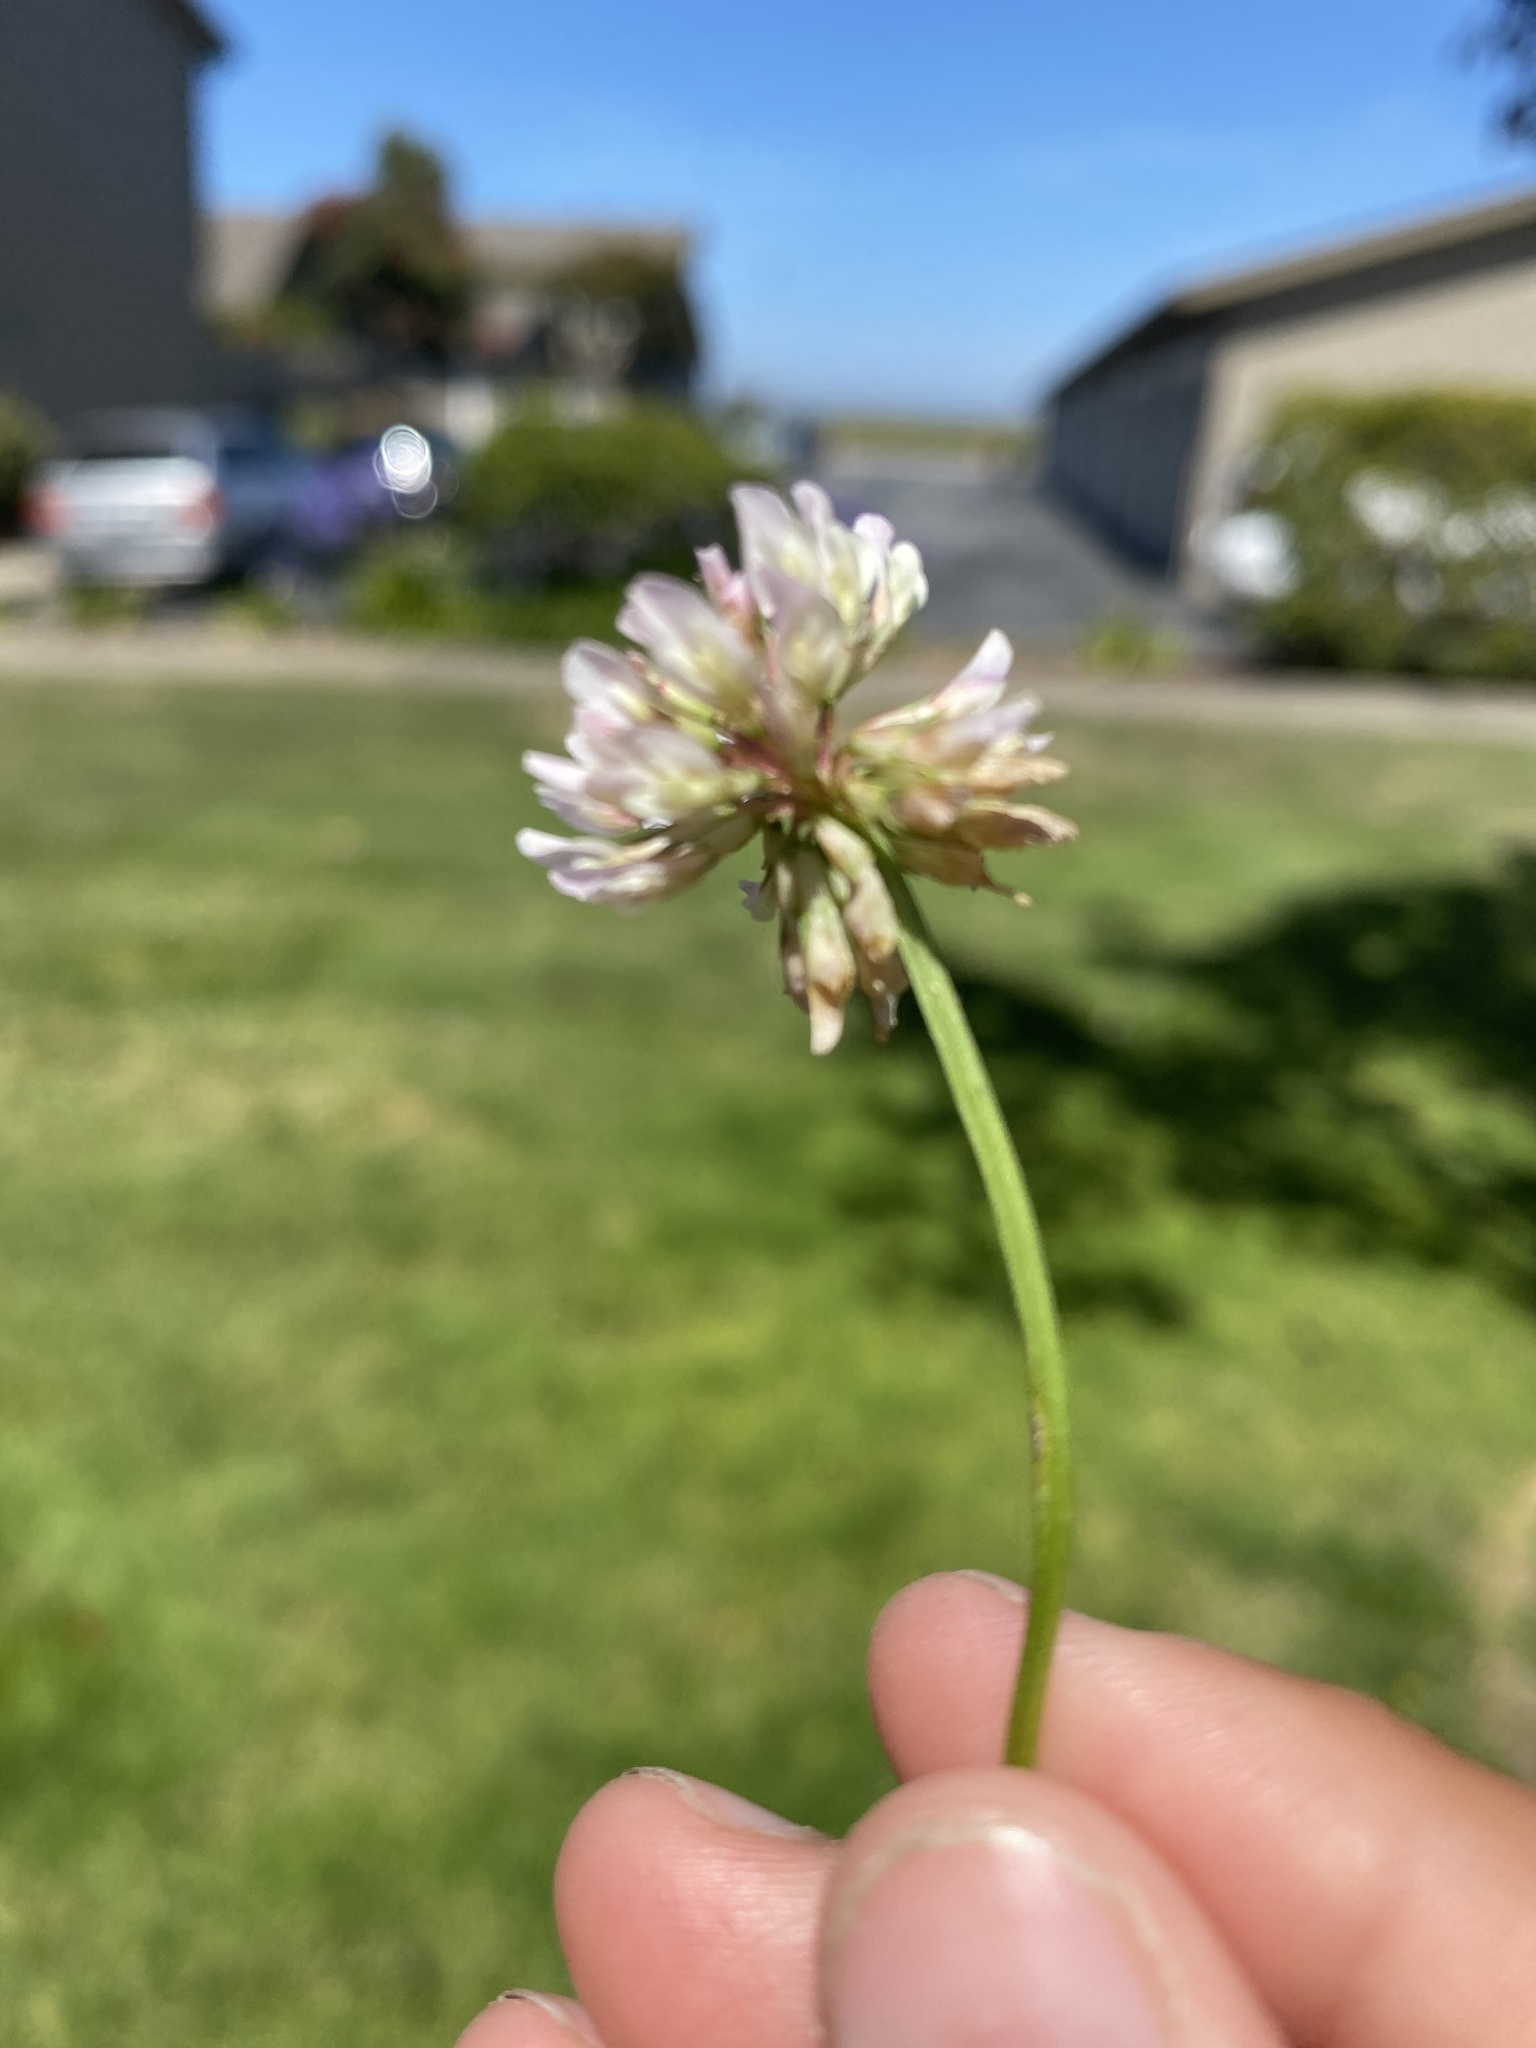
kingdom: Plantae
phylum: Tracheophyta
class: Magnoliopsida
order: Fabales
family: Fabaceae
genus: Trifolium
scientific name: Trifolium repens
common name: White clover
